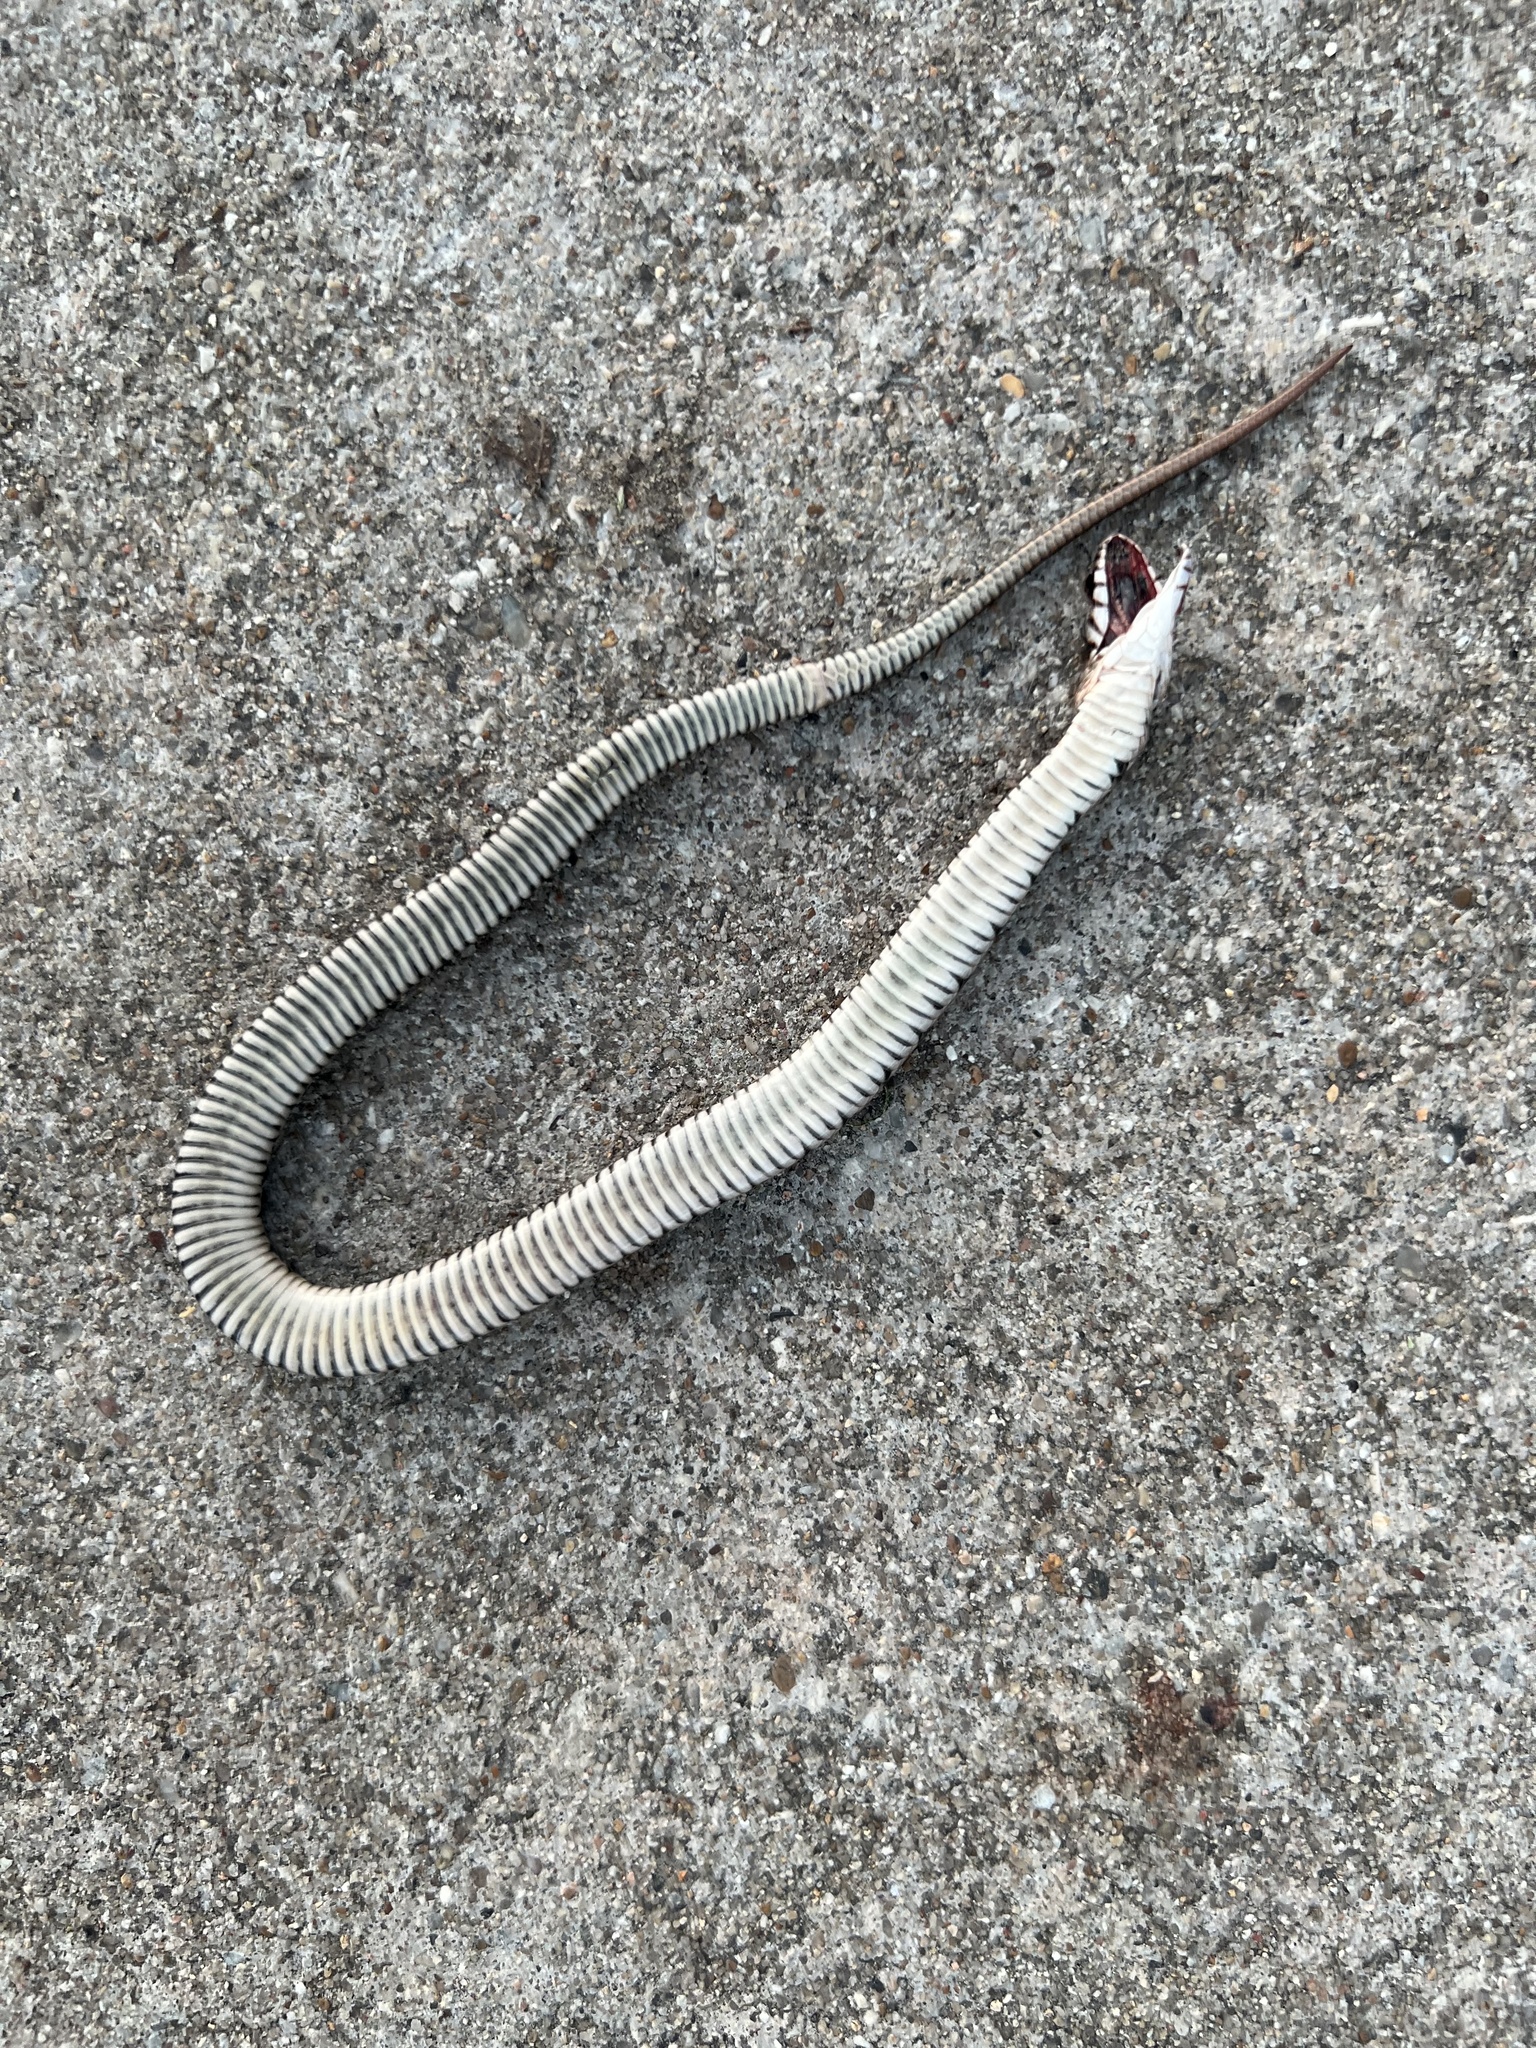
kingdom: Animalia
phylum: Chordata
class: Squamata
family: Colubridae
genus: Nerodia
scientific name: Nerodia erythrogaster
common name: Plainbelly water snake
